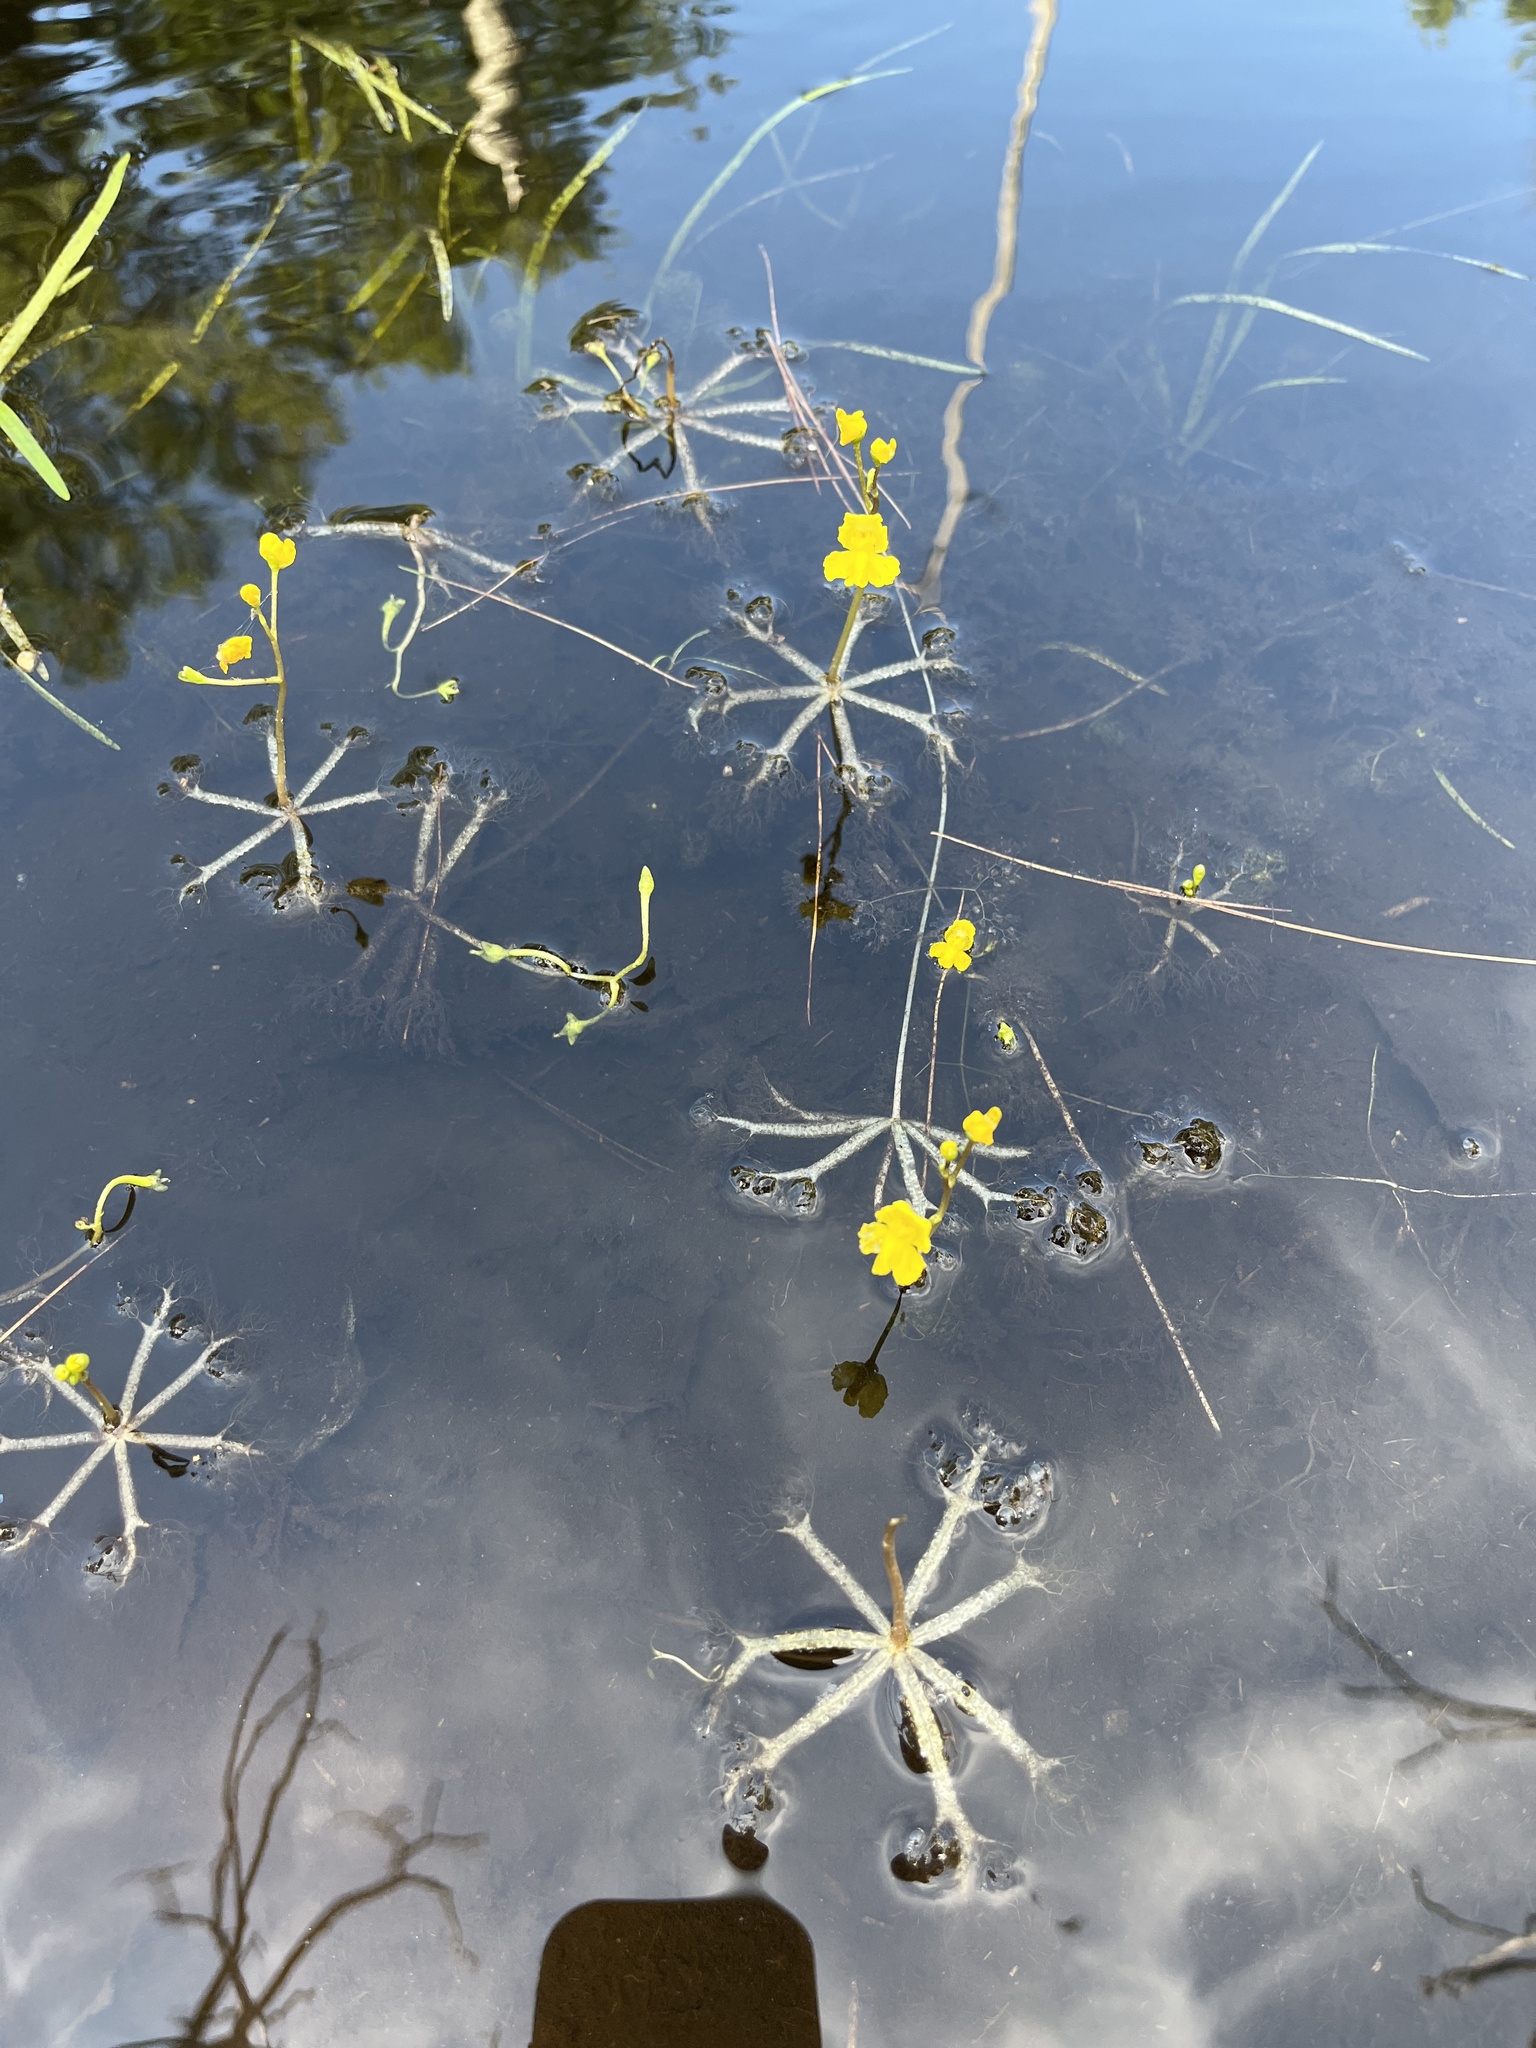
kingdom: Plantae
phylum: Tracheophyta
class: Magnoliopsida
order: Lamiales
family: Lentibulariaceae
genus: Utricularia
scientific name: Utricularia radiata
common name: Floating bladderwort
